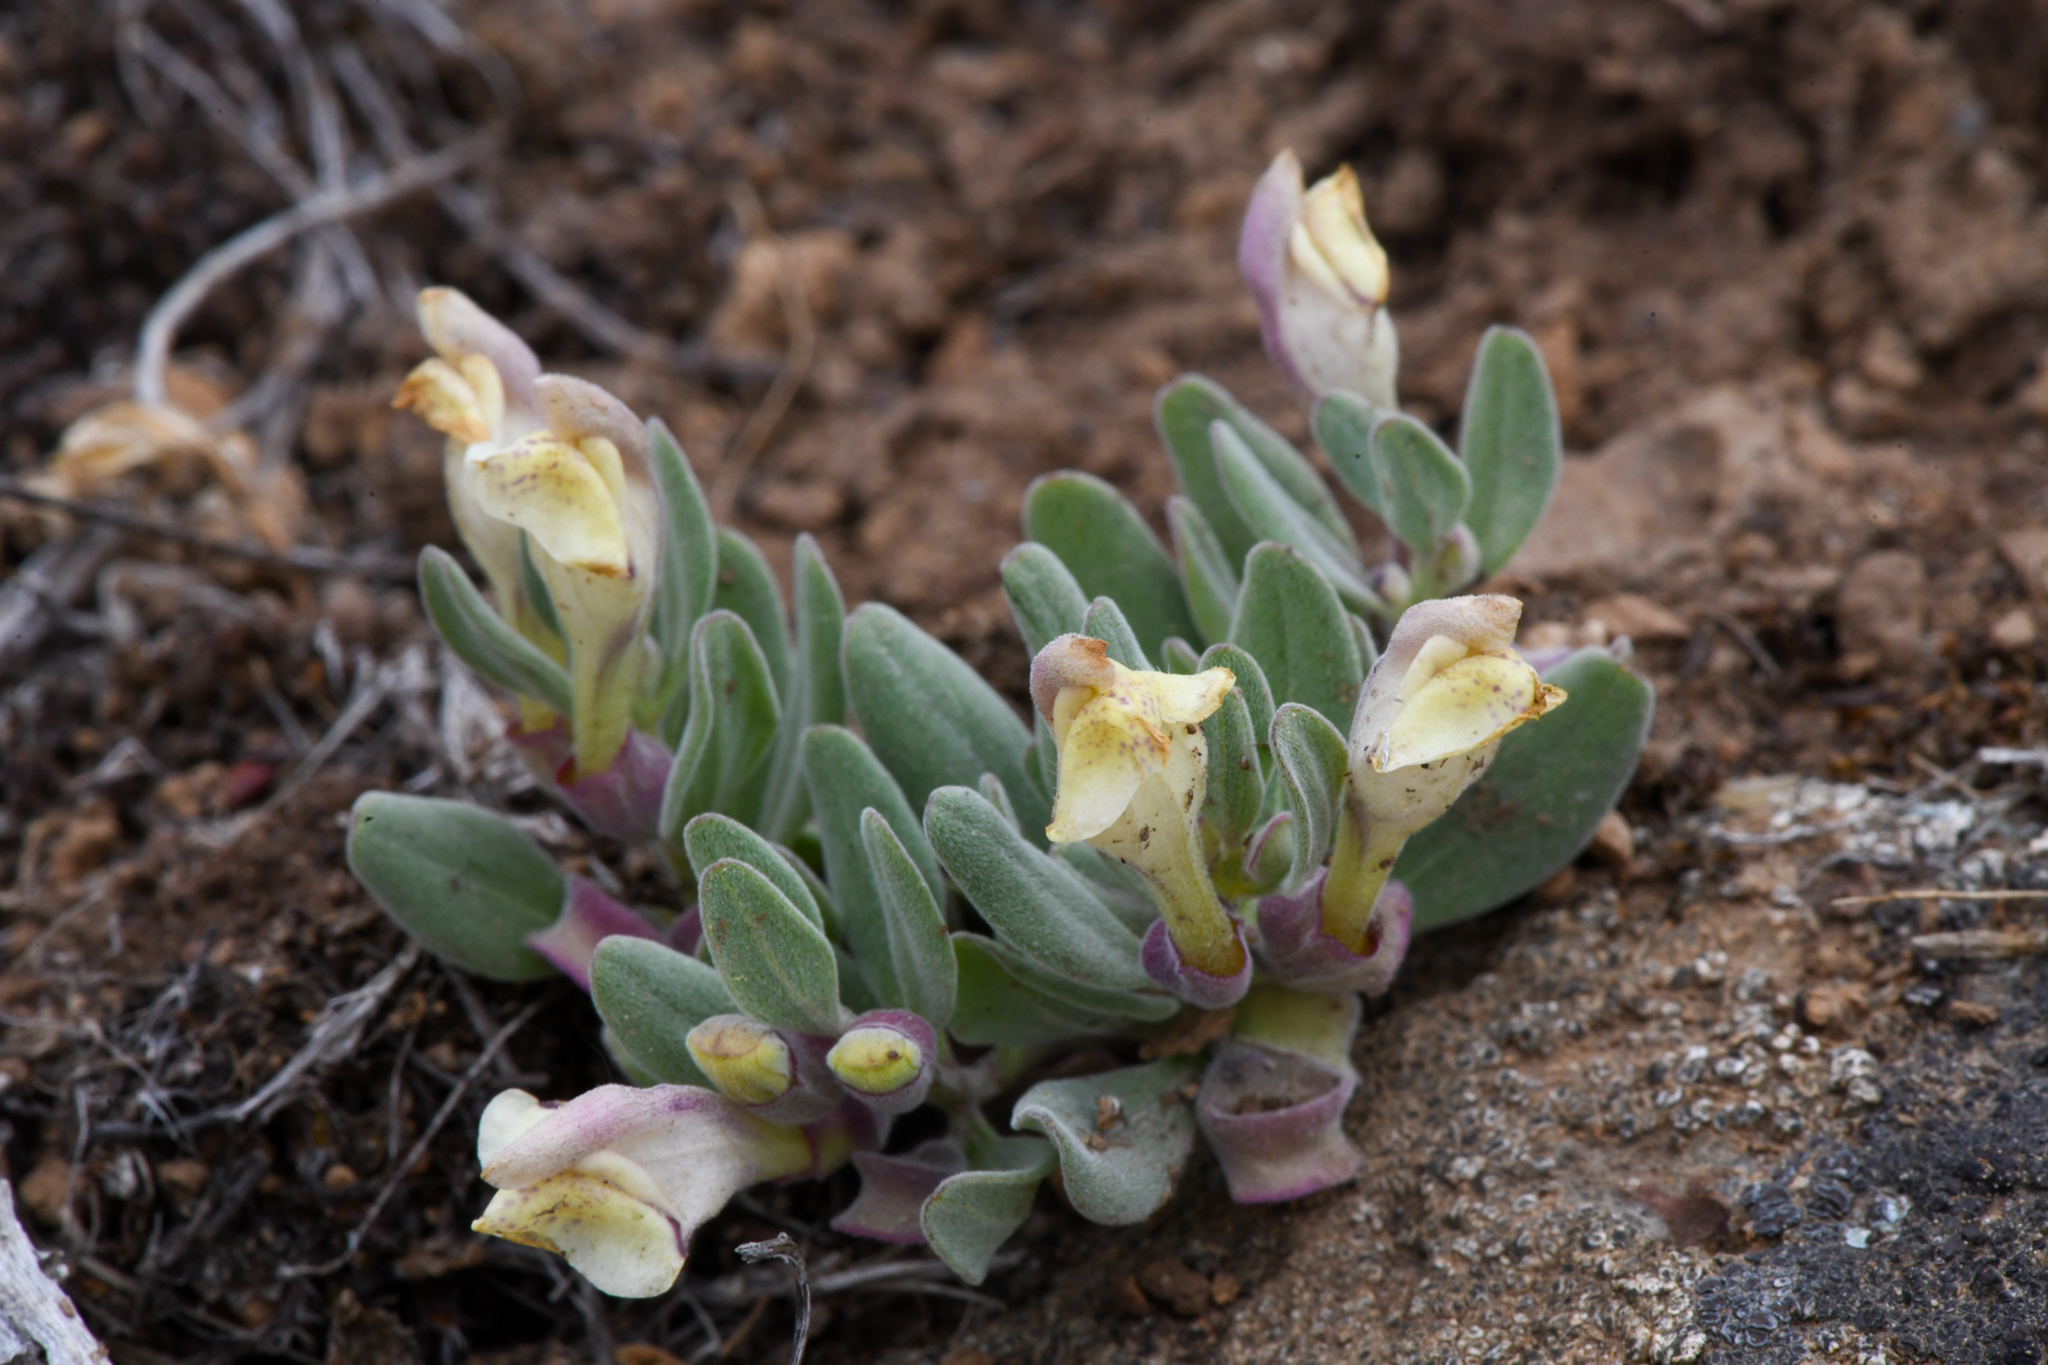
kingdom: Plantae
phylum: Tracheophyta
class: Magnoliopsida
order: Lamiales
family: Lamiaceae
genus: Scutellaria
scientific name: Scutellaria nana
